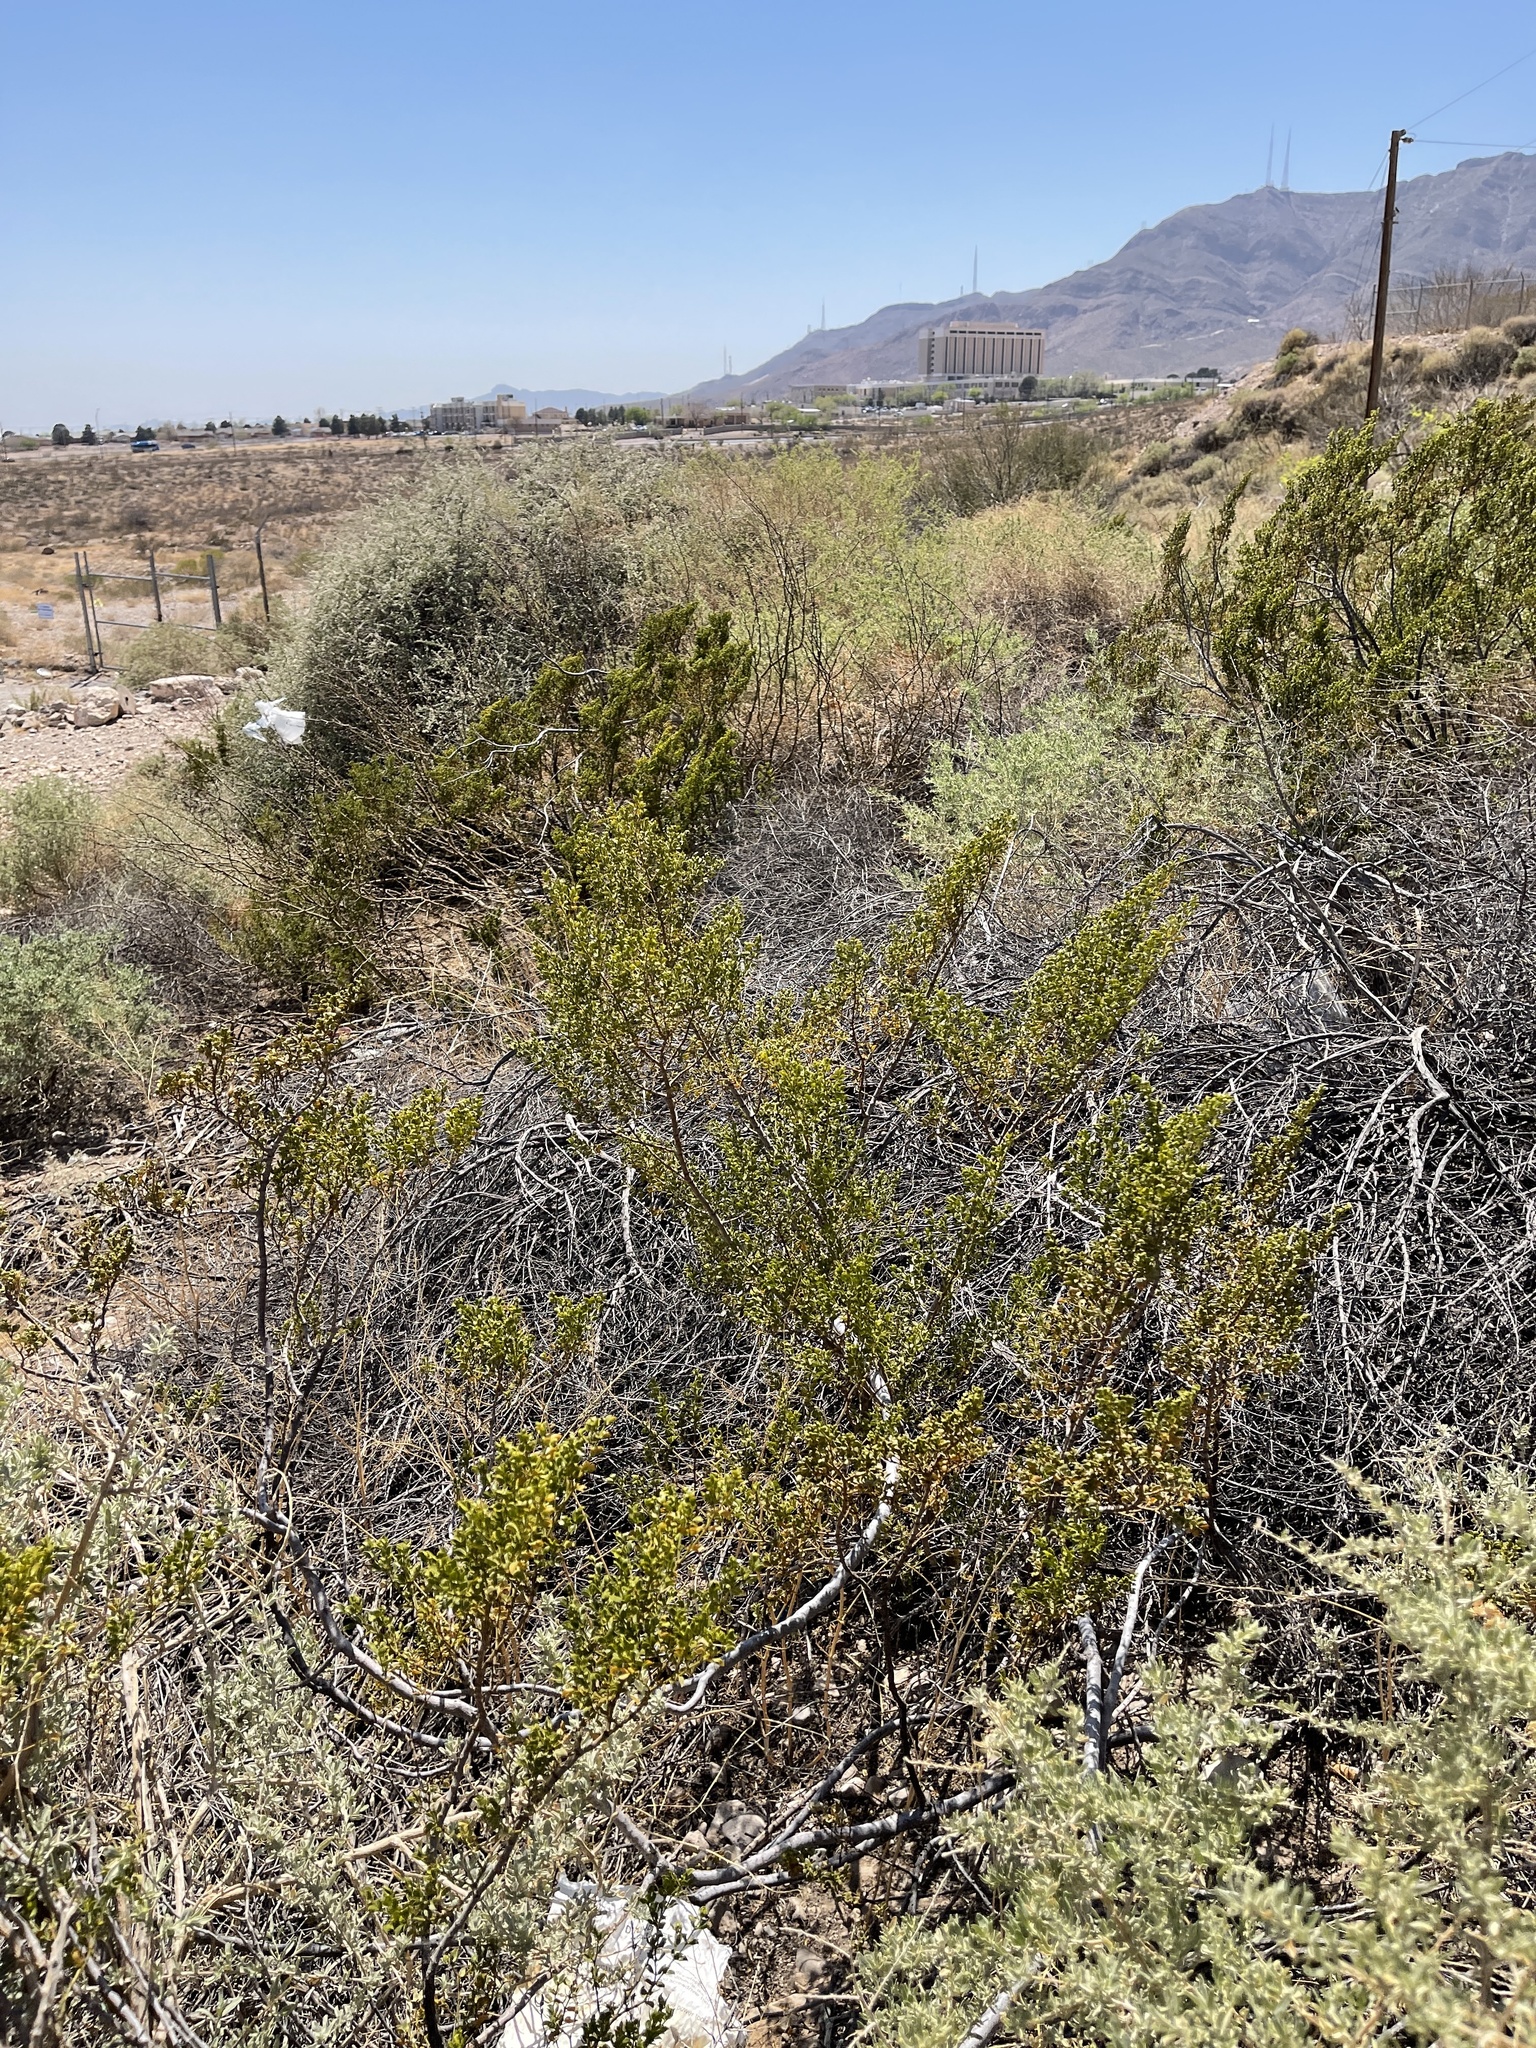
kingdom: Plantae
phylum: Tracheophyta
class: Magnoliopsida
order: Zygophyllales
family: Zygophyllaceae
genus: Larrea
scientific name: Larrea tridentata
